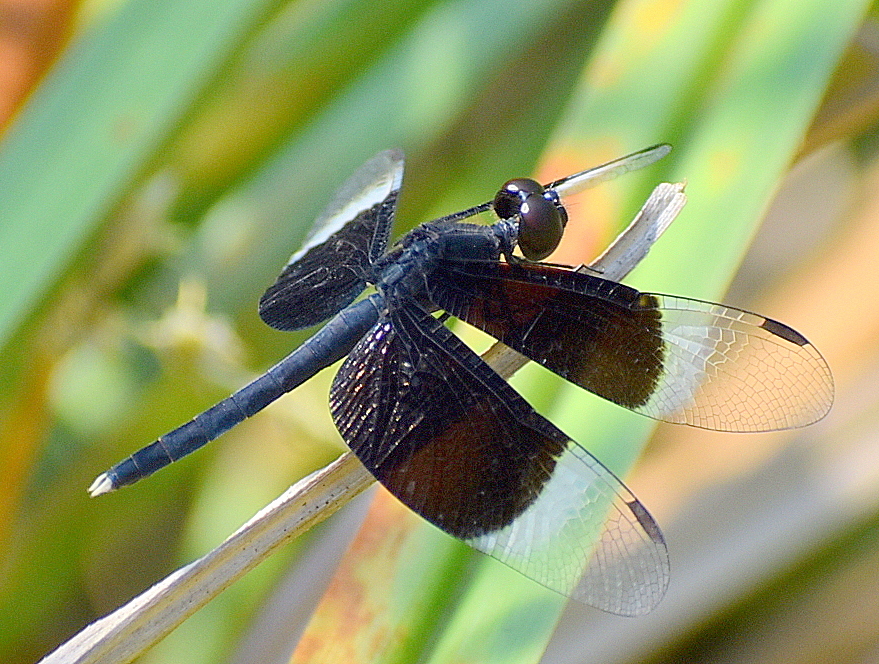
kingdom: Animalia
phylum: Arthropoda
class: Insecta
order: Odonata
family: Libellulidae
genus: Neurothemis
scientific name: Neurothemis tullia
